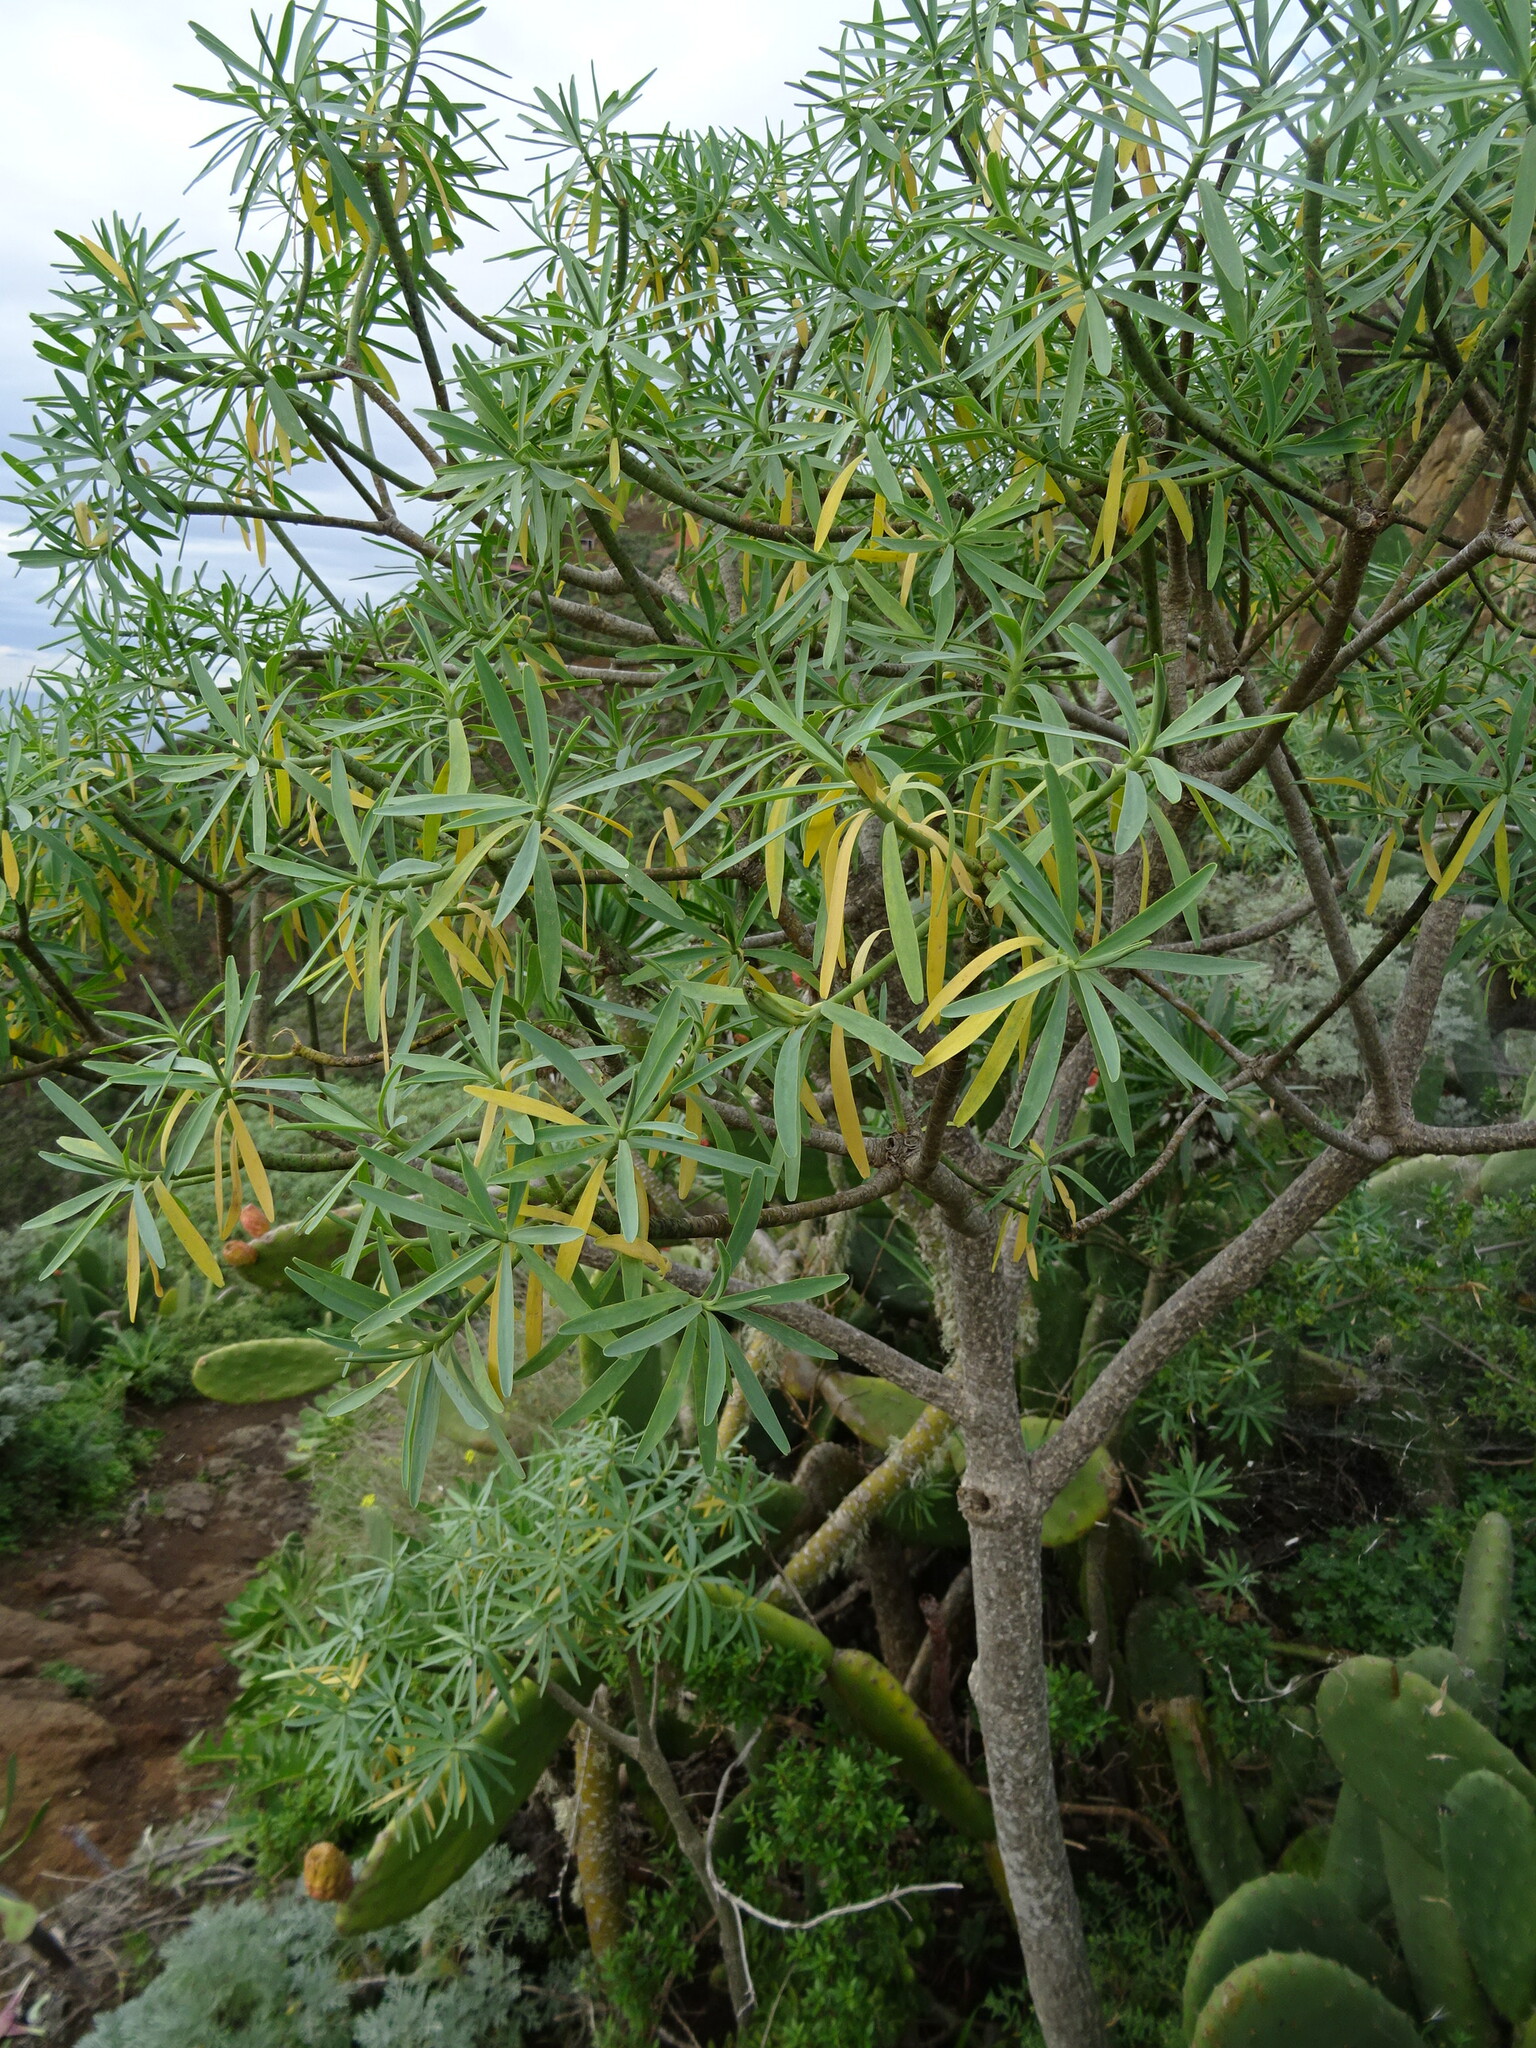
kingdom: Plantae
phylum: Tracheophyta
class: Magnoliopsida
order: Malpighiales
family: Euphorbiaceae
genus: Euphorbia
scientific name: Euphorbia lamarckii
